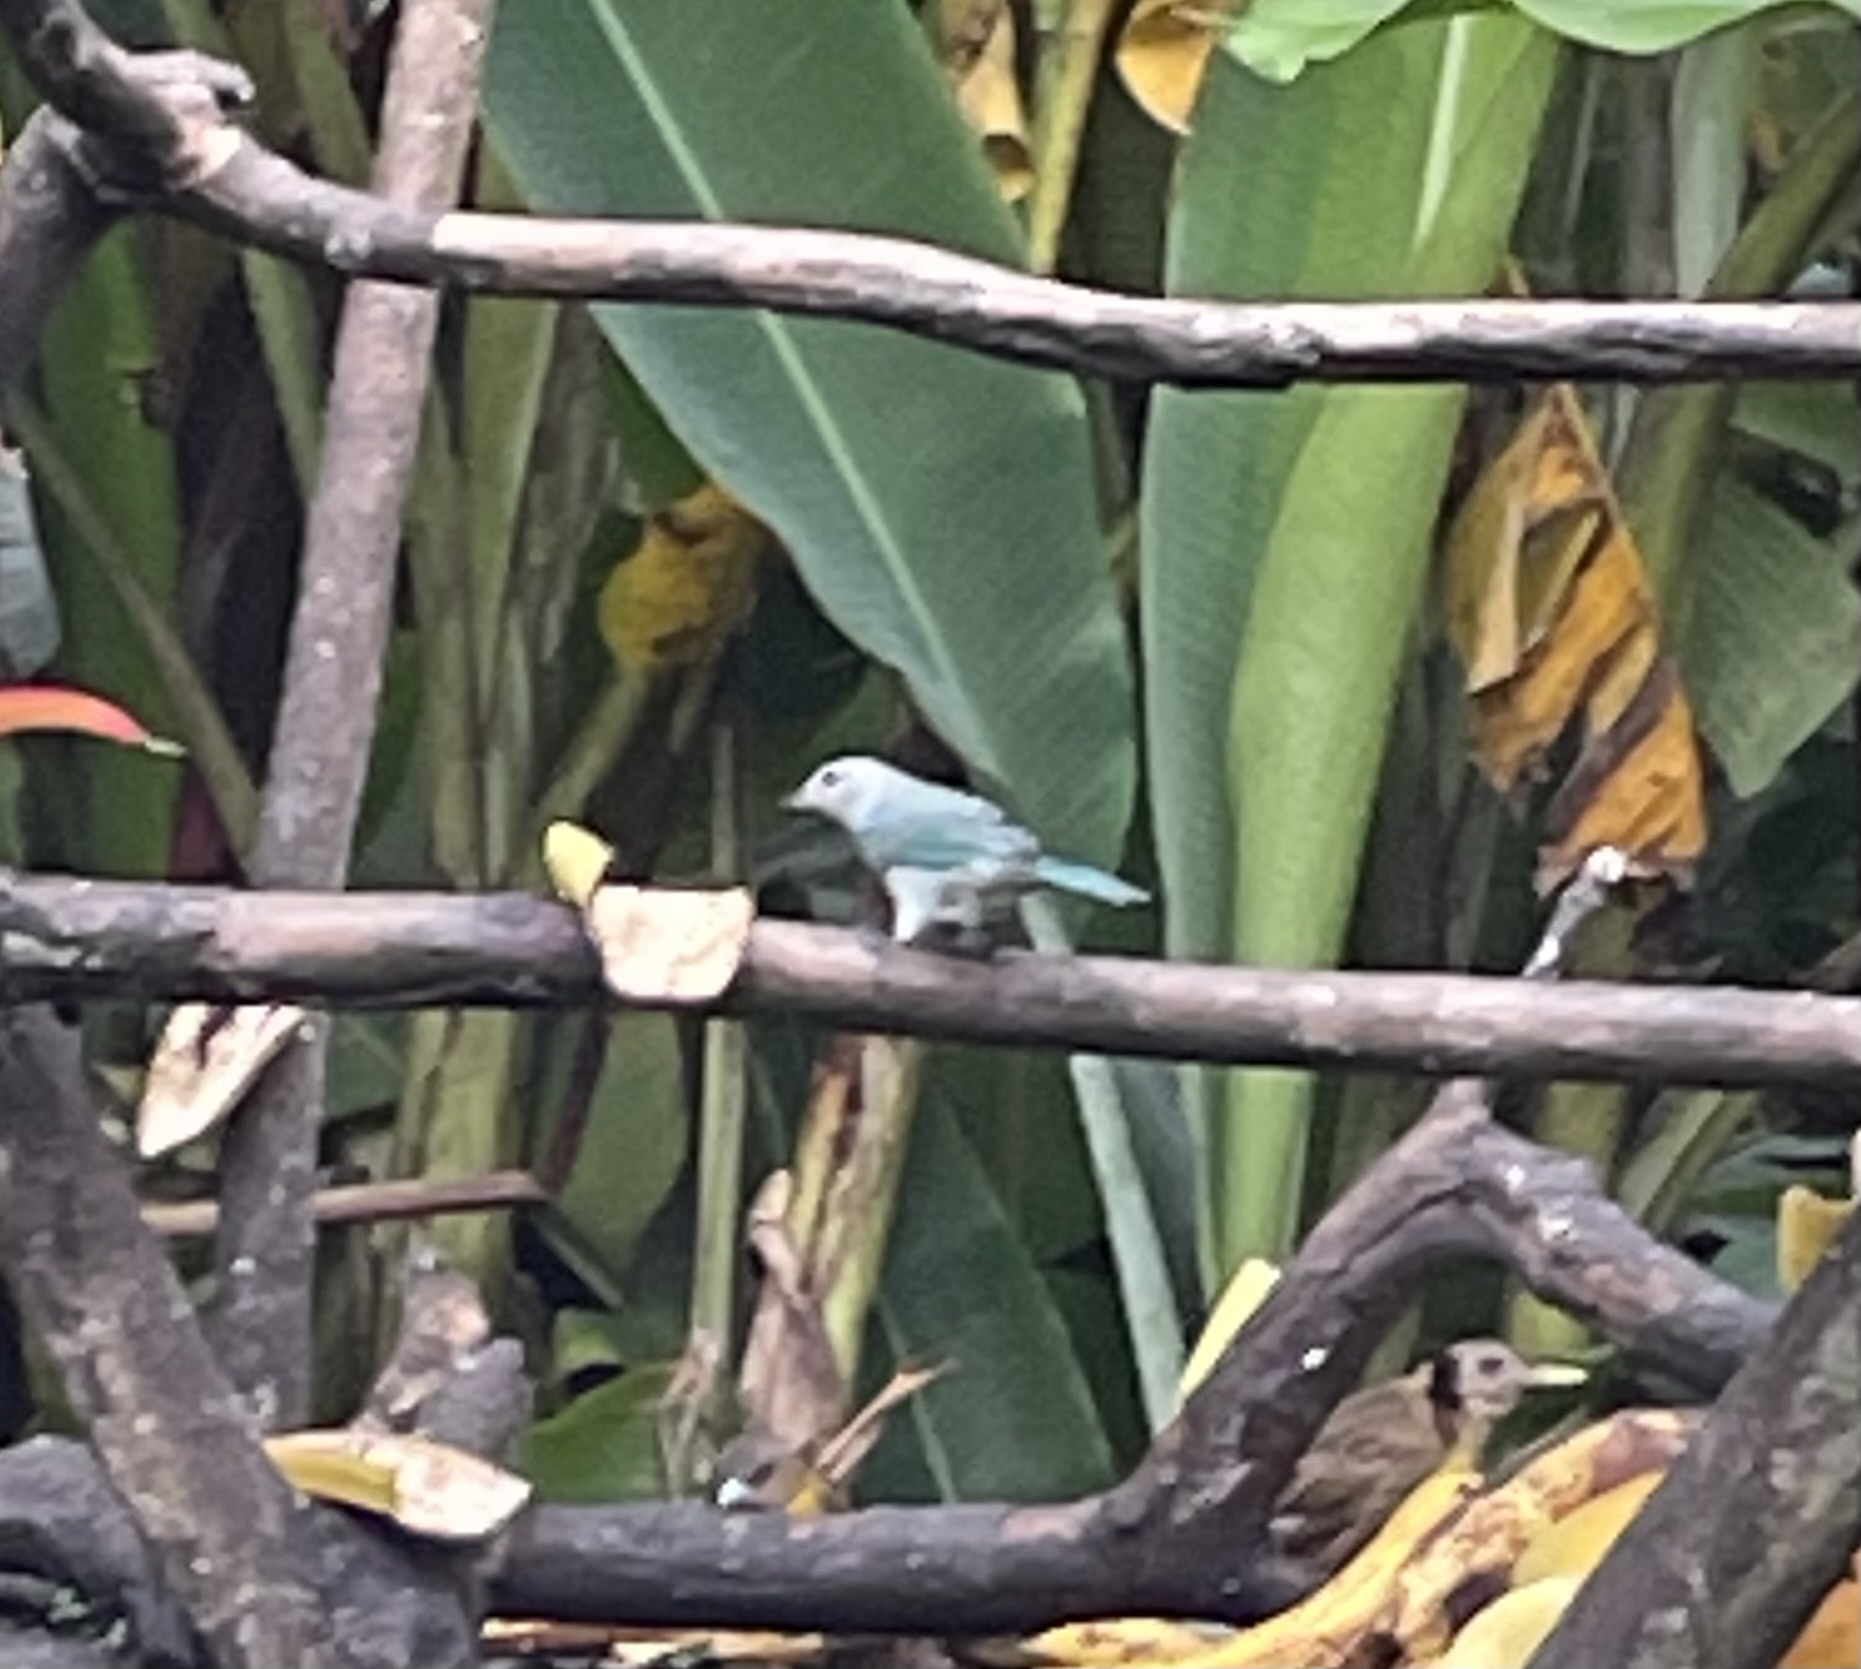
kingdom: Animalia
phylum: Chordata
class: Aves
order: Passeriformes
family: Thraupidae
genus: Thraupis
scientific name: Thraupis episcopus
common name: Blue-grey tanager
